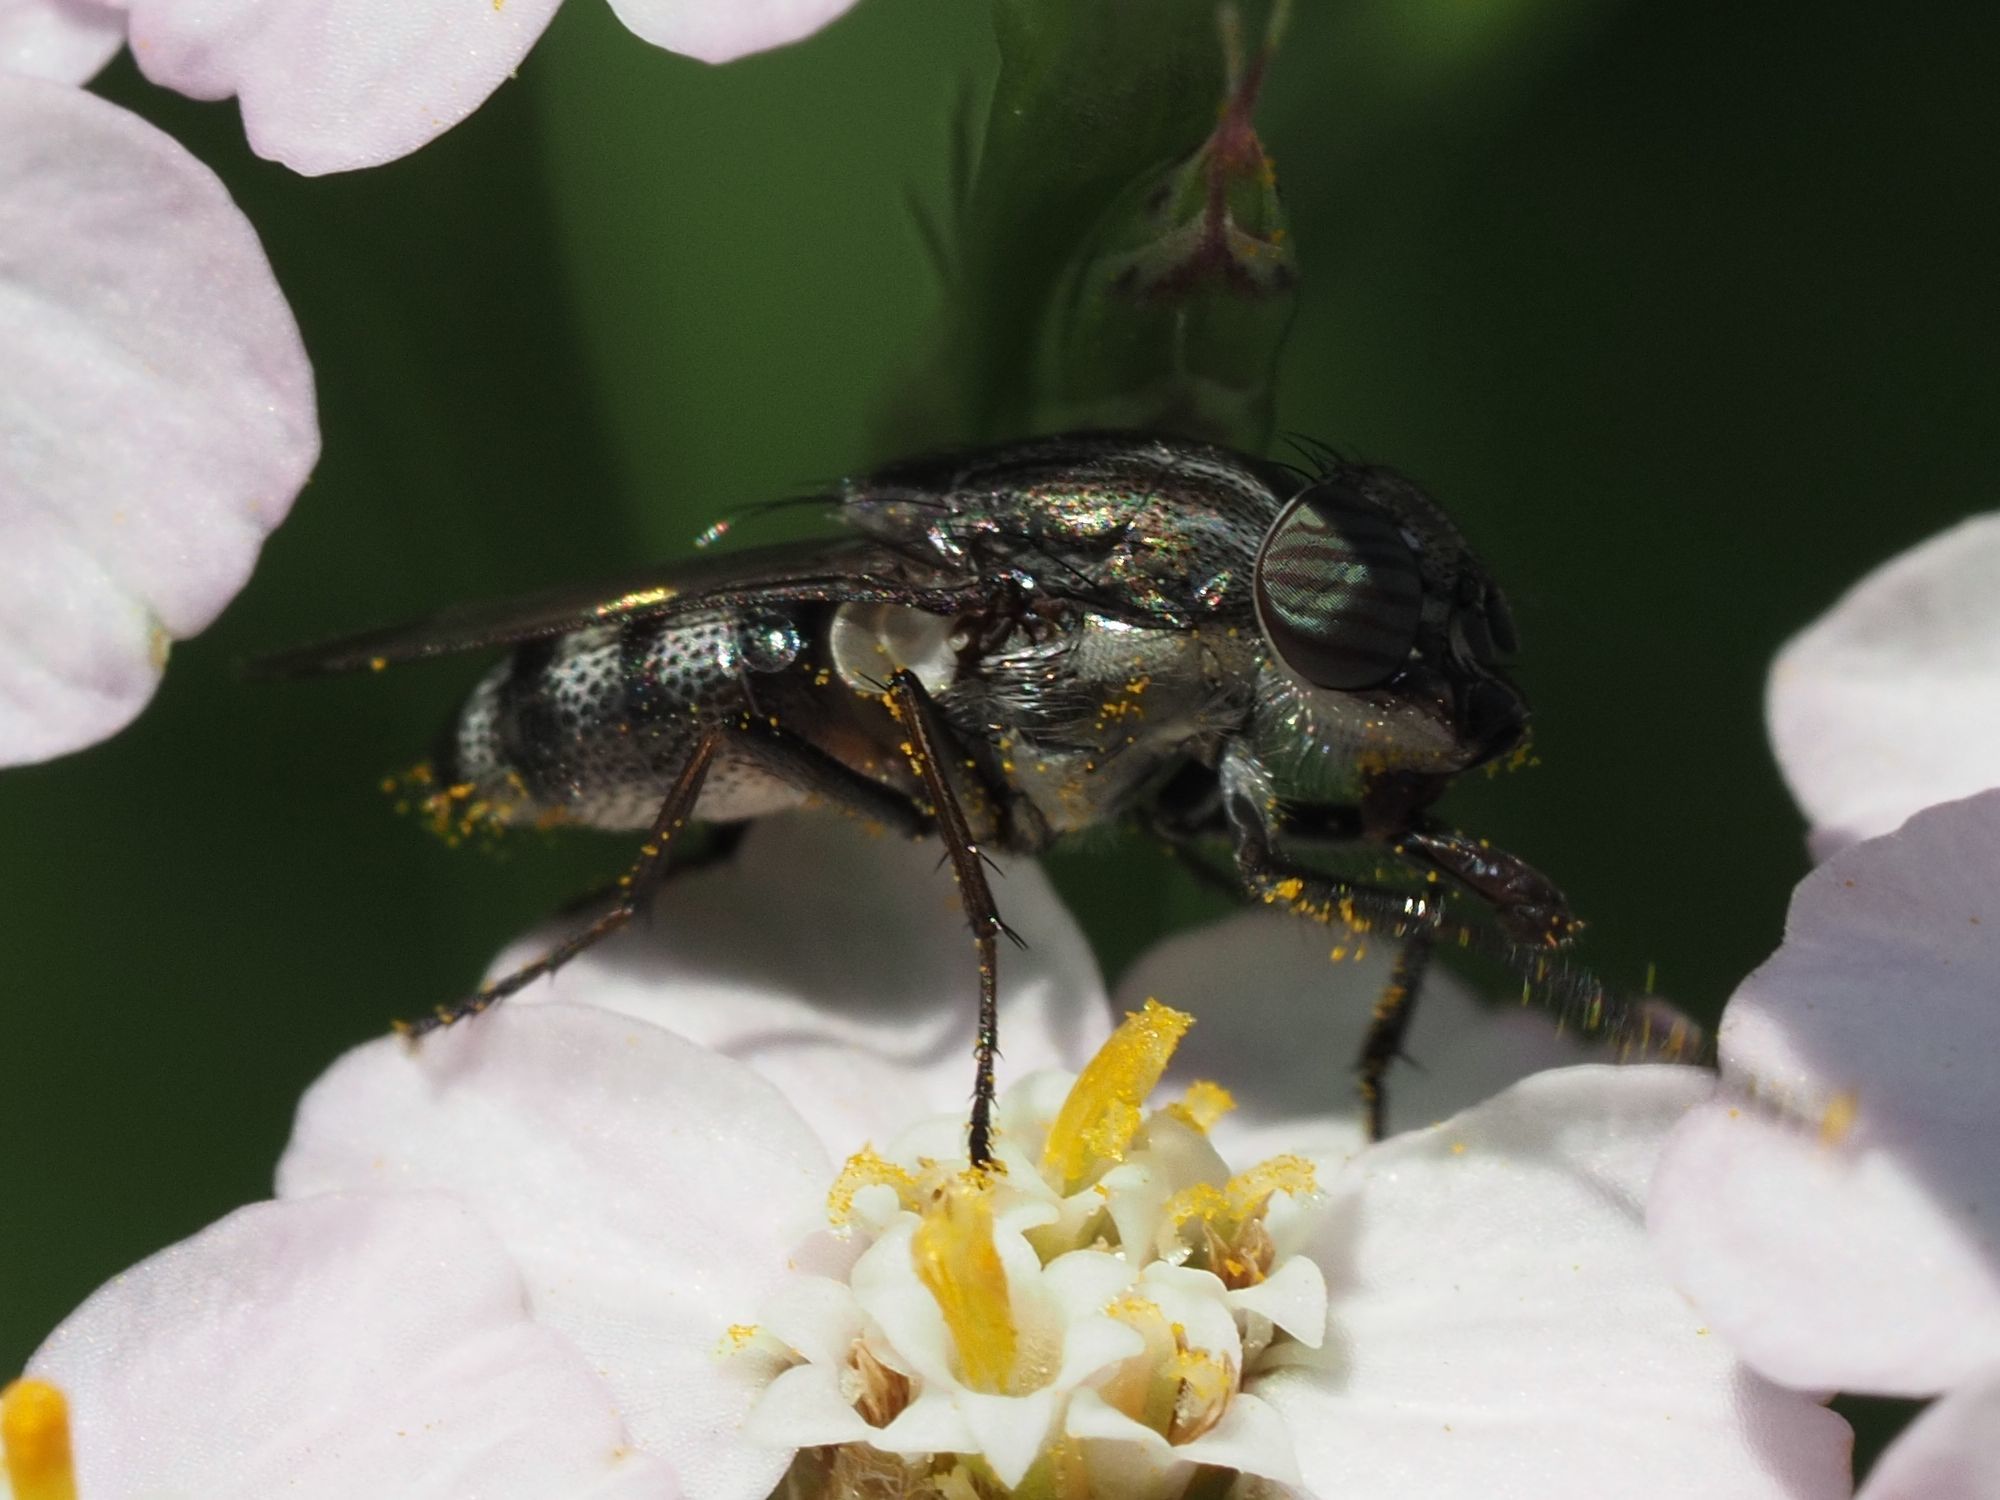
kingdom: Animalia
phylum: Arthropoda
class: Insecta
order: Diptera
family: Calliphoridae
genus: Stomorhina
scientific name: Stomorhina lunata
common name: Locust blowfly
